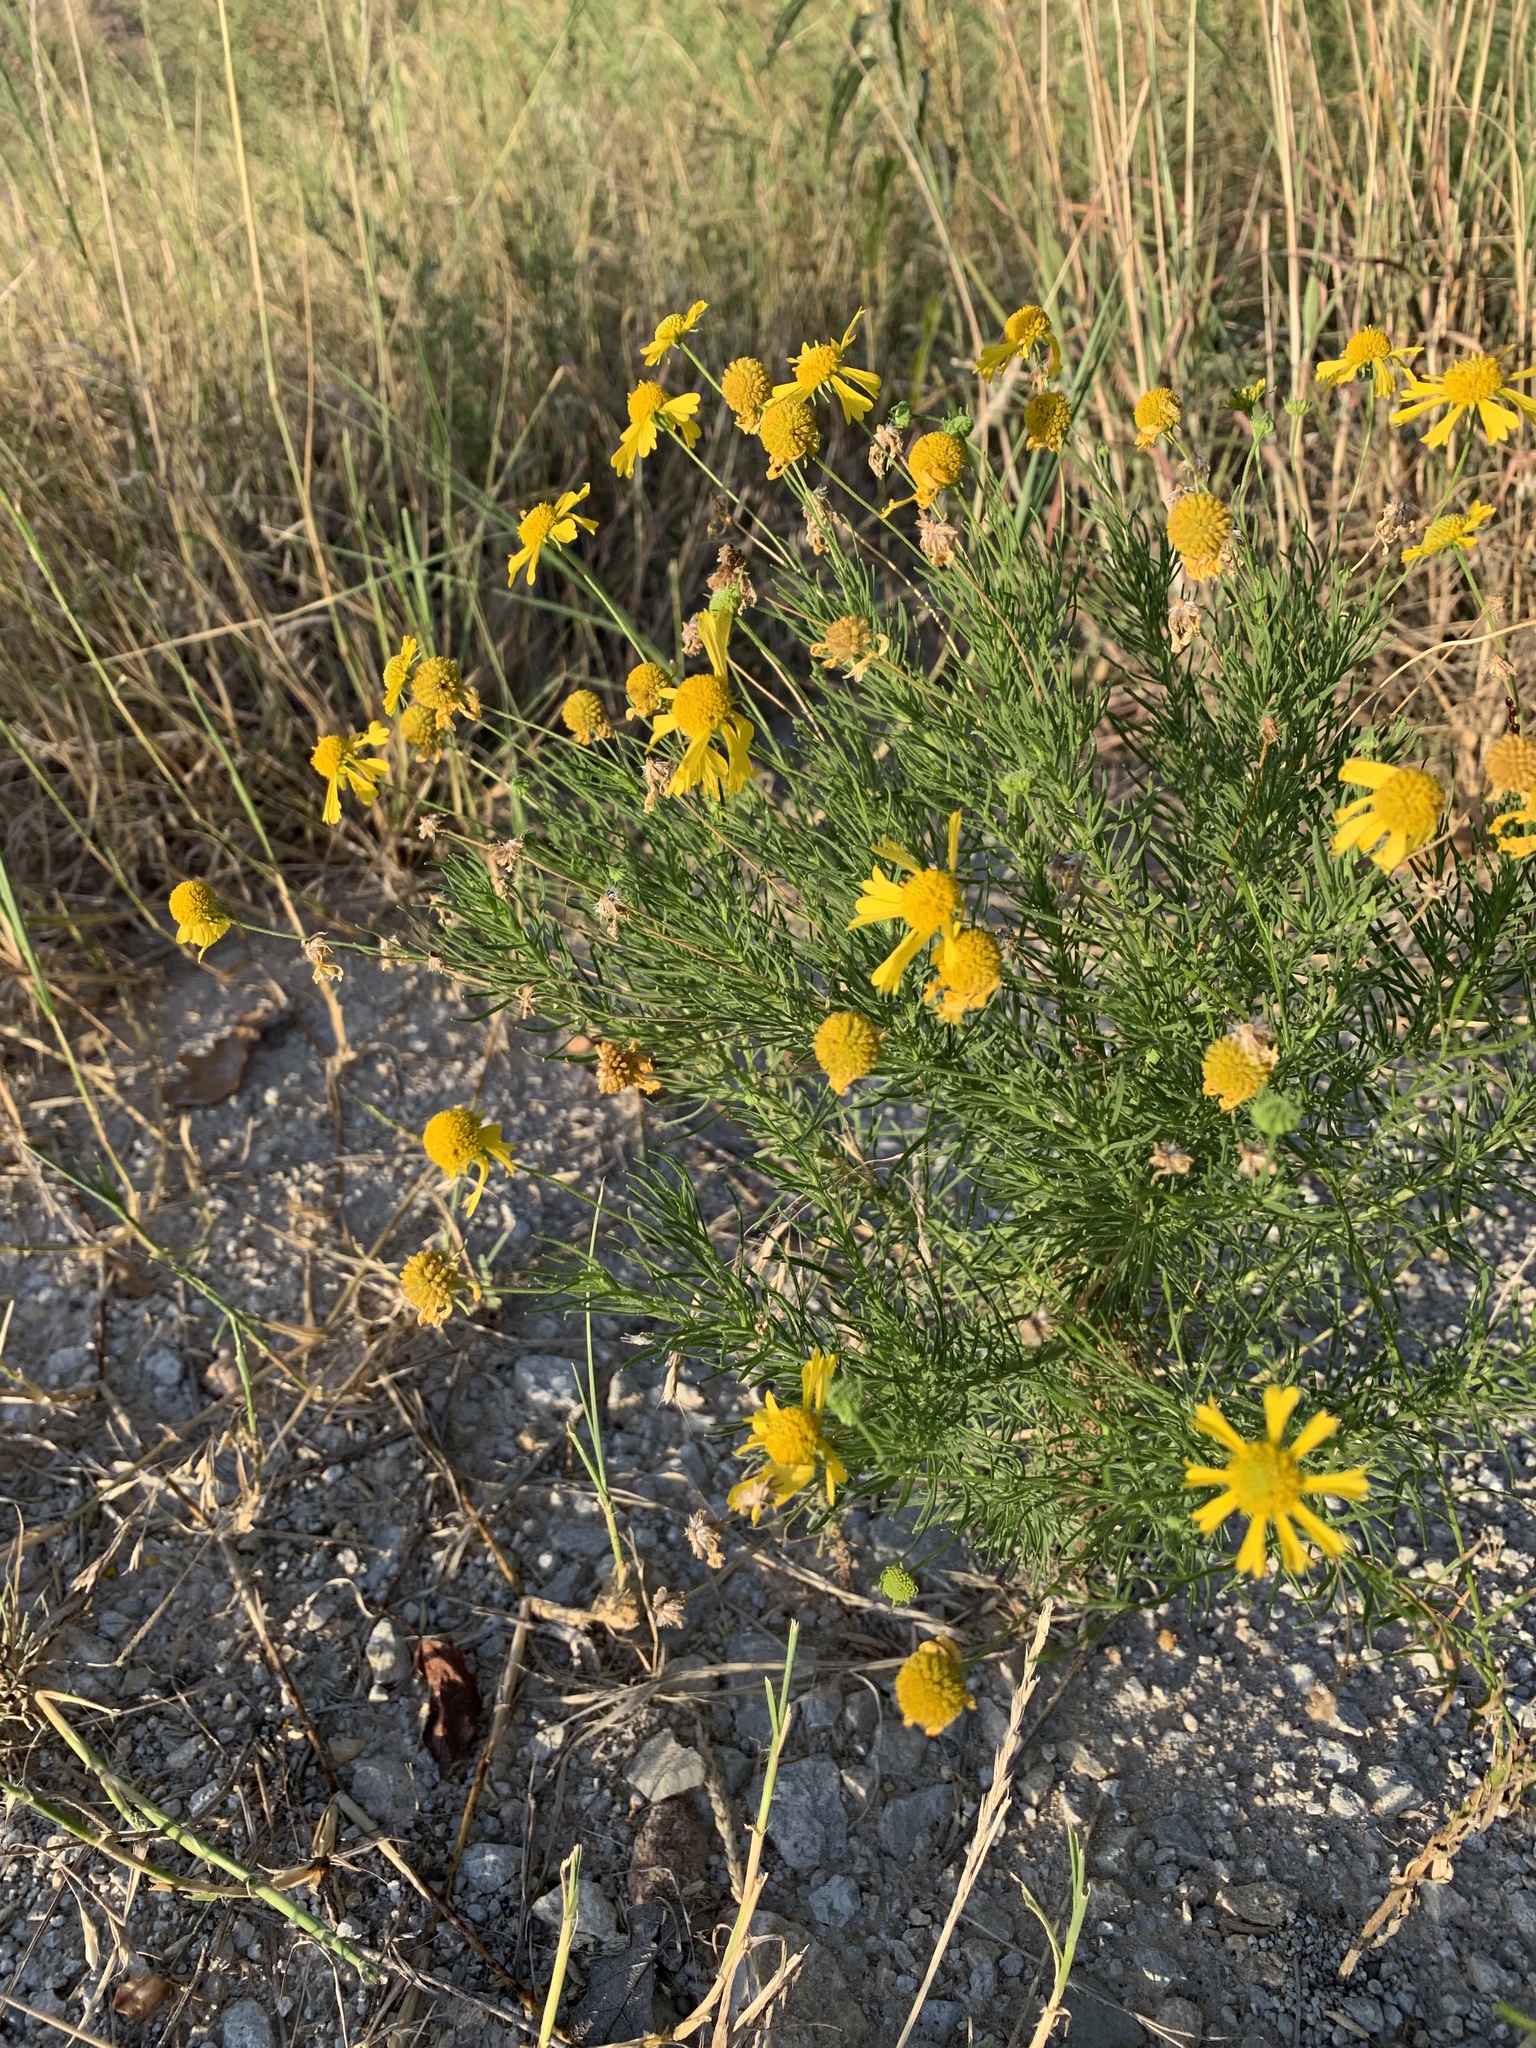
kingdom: Plantae
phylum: Tracheophyta
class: Magnoliopsida
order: Asterales
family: Asteraceae
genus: Helenium
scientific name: Helenium amarum
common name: Bitter sneezeweed
